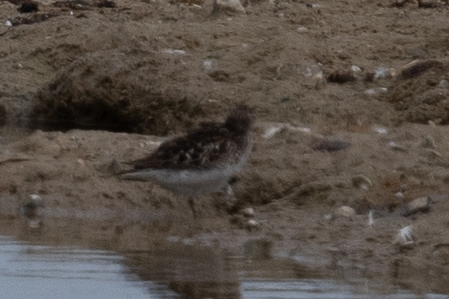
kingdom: Animalia
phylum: Chordata
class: Aves
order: Charadriiformes
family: Scolopacidae
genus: Calidris
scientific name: Calidris minutilla
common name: Least sandpiper
